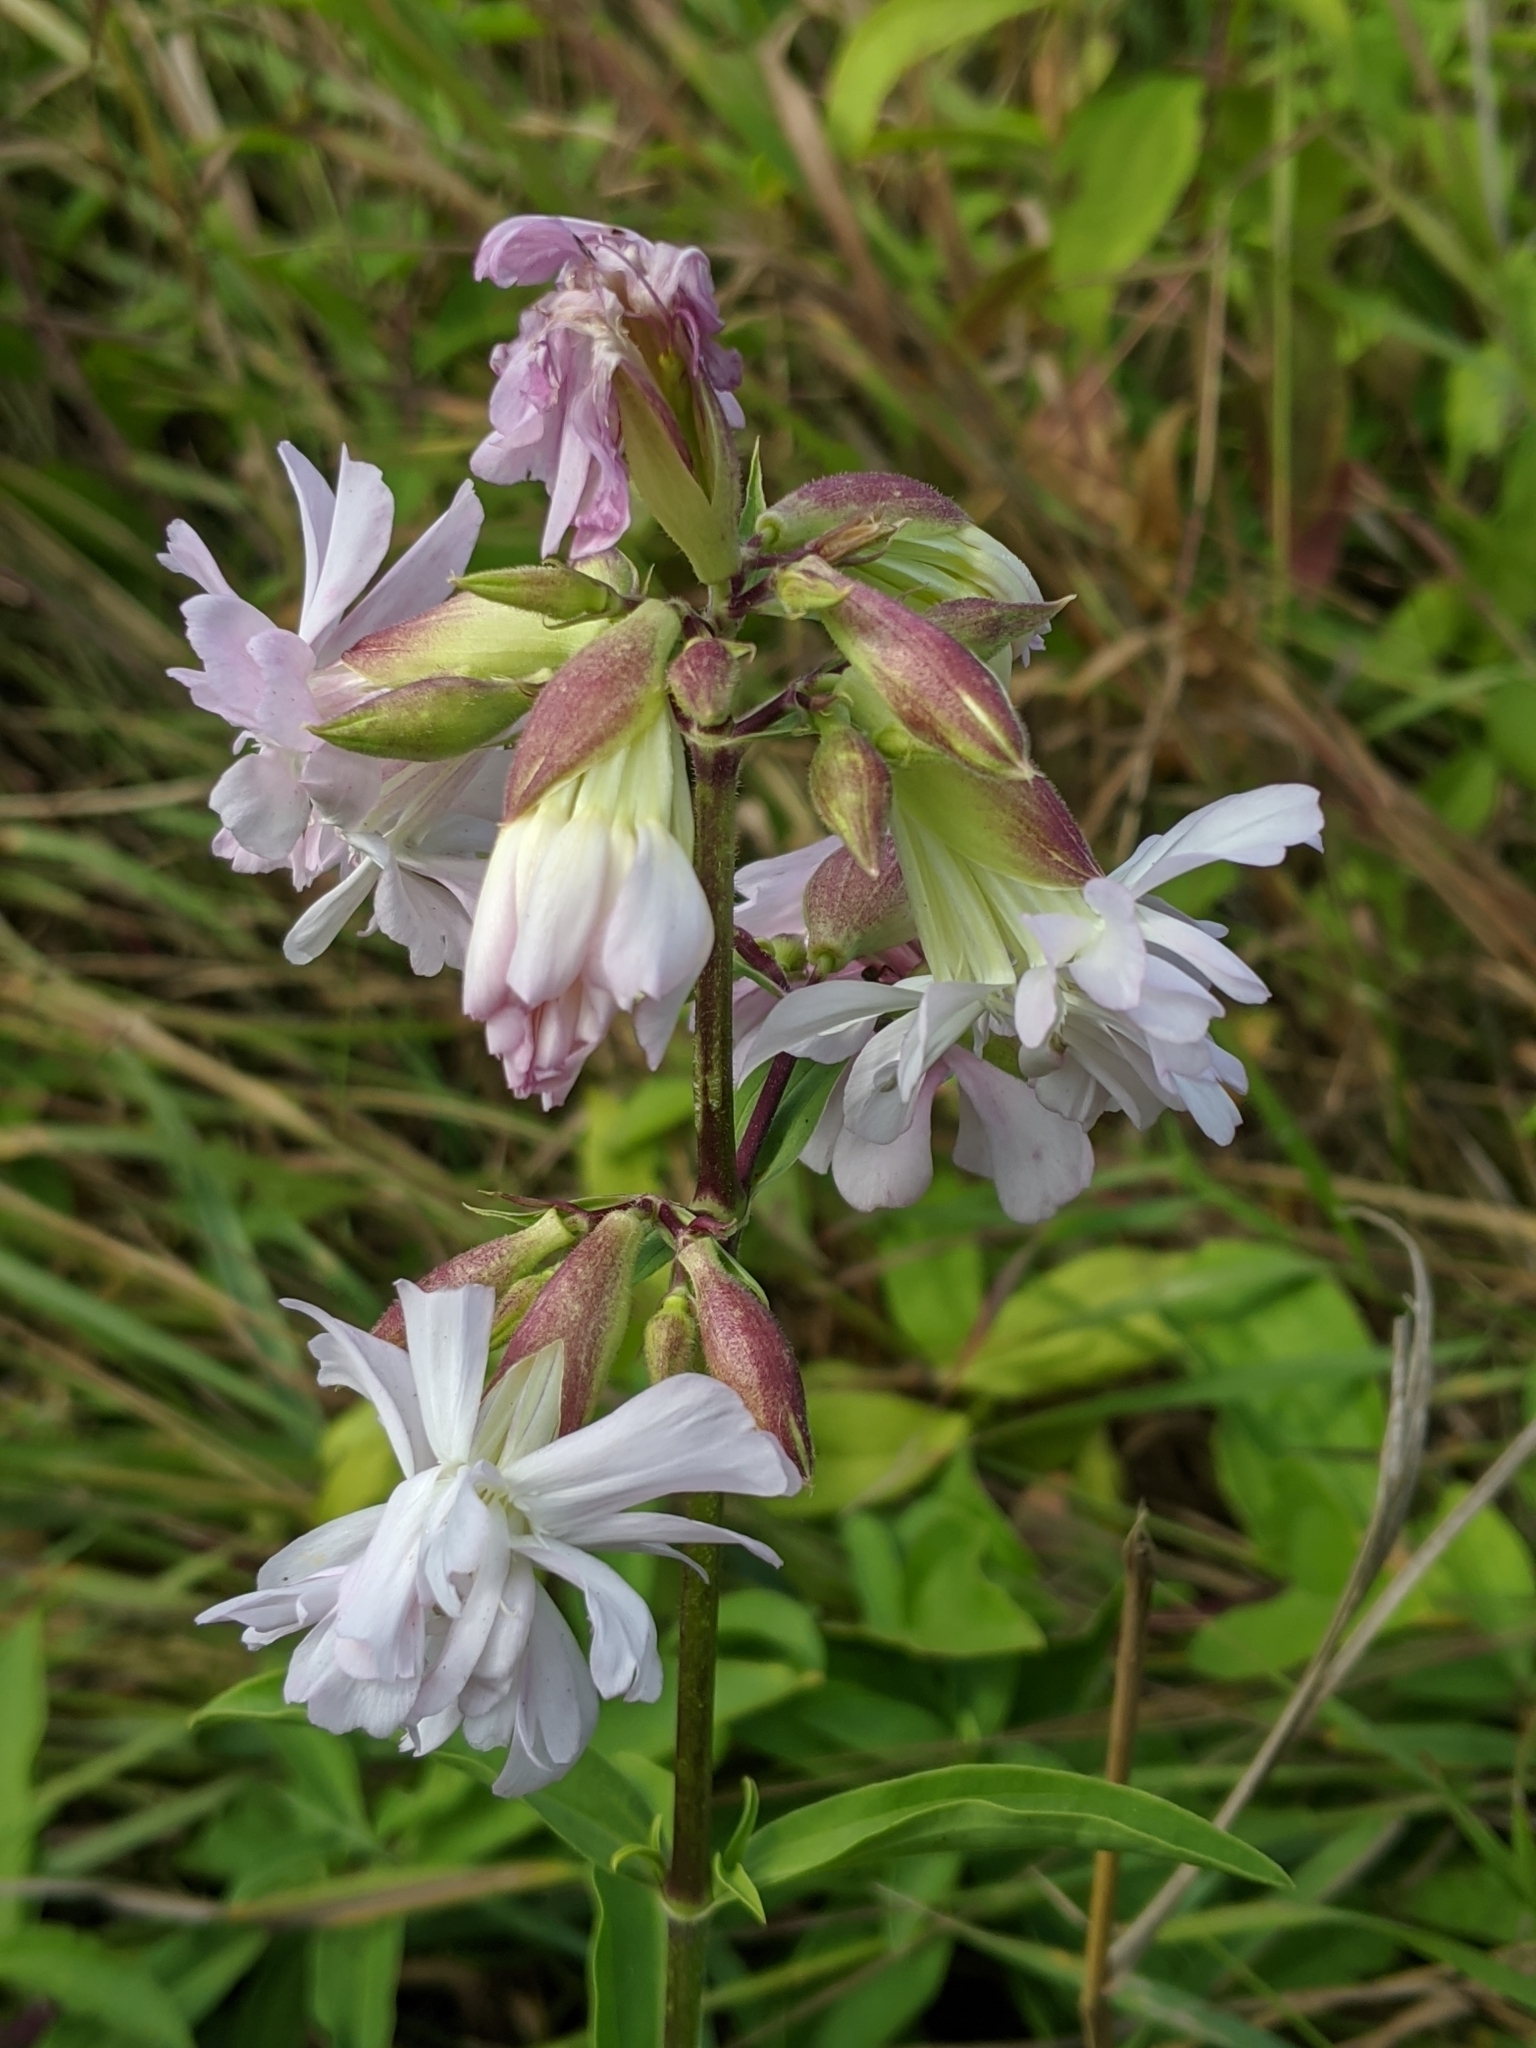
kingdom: Plantae
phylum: Tracheophyta
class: Magnoliopsida
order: Caryophyllales
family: Caryophyllaceae
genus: Saponaria
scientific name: Saponaria officinalis
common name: Soapwort
